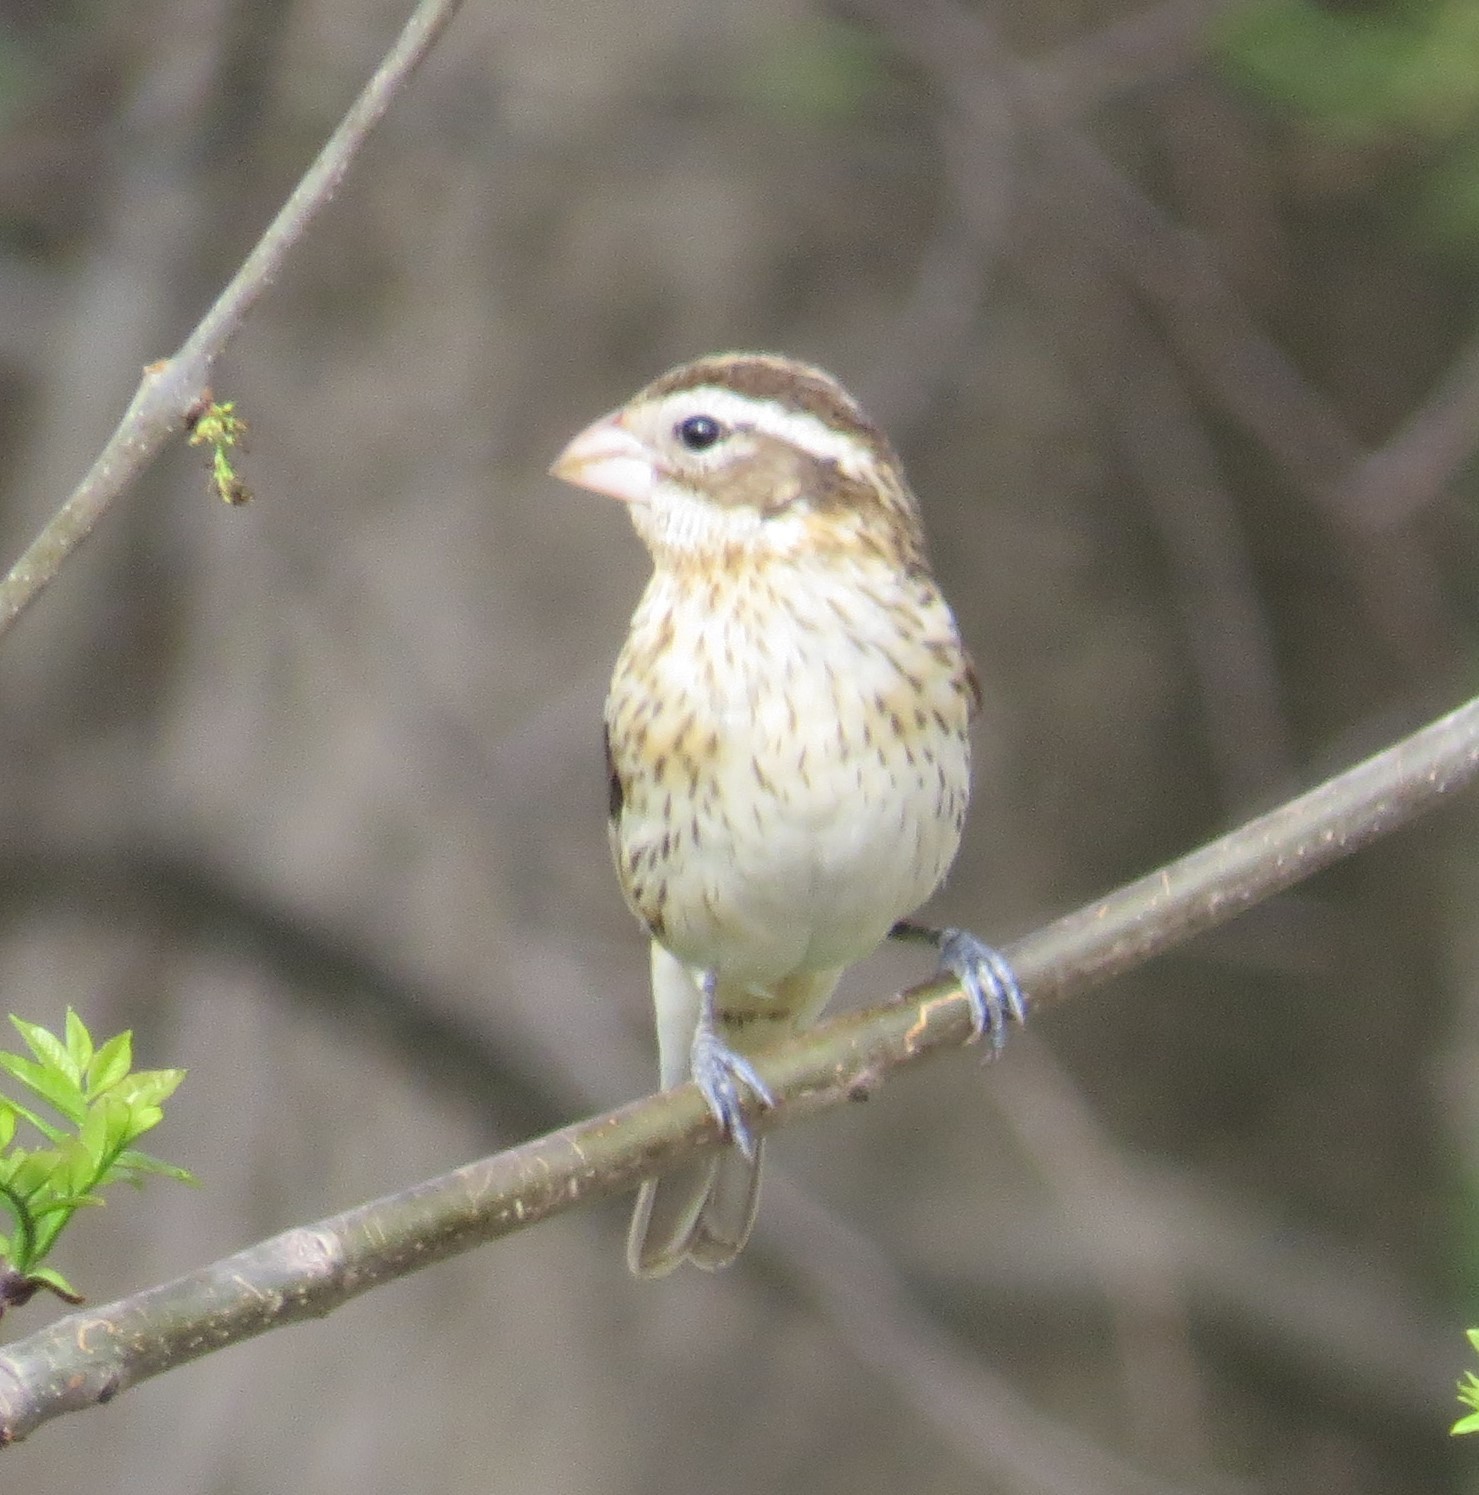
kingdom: Animalia
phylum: Chordata
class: Aves
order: Passeriformes
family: Cardinalidae
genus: Pheucticus
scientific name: Pheucticus ludovicianus
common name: Rose-breasted grosbeak
